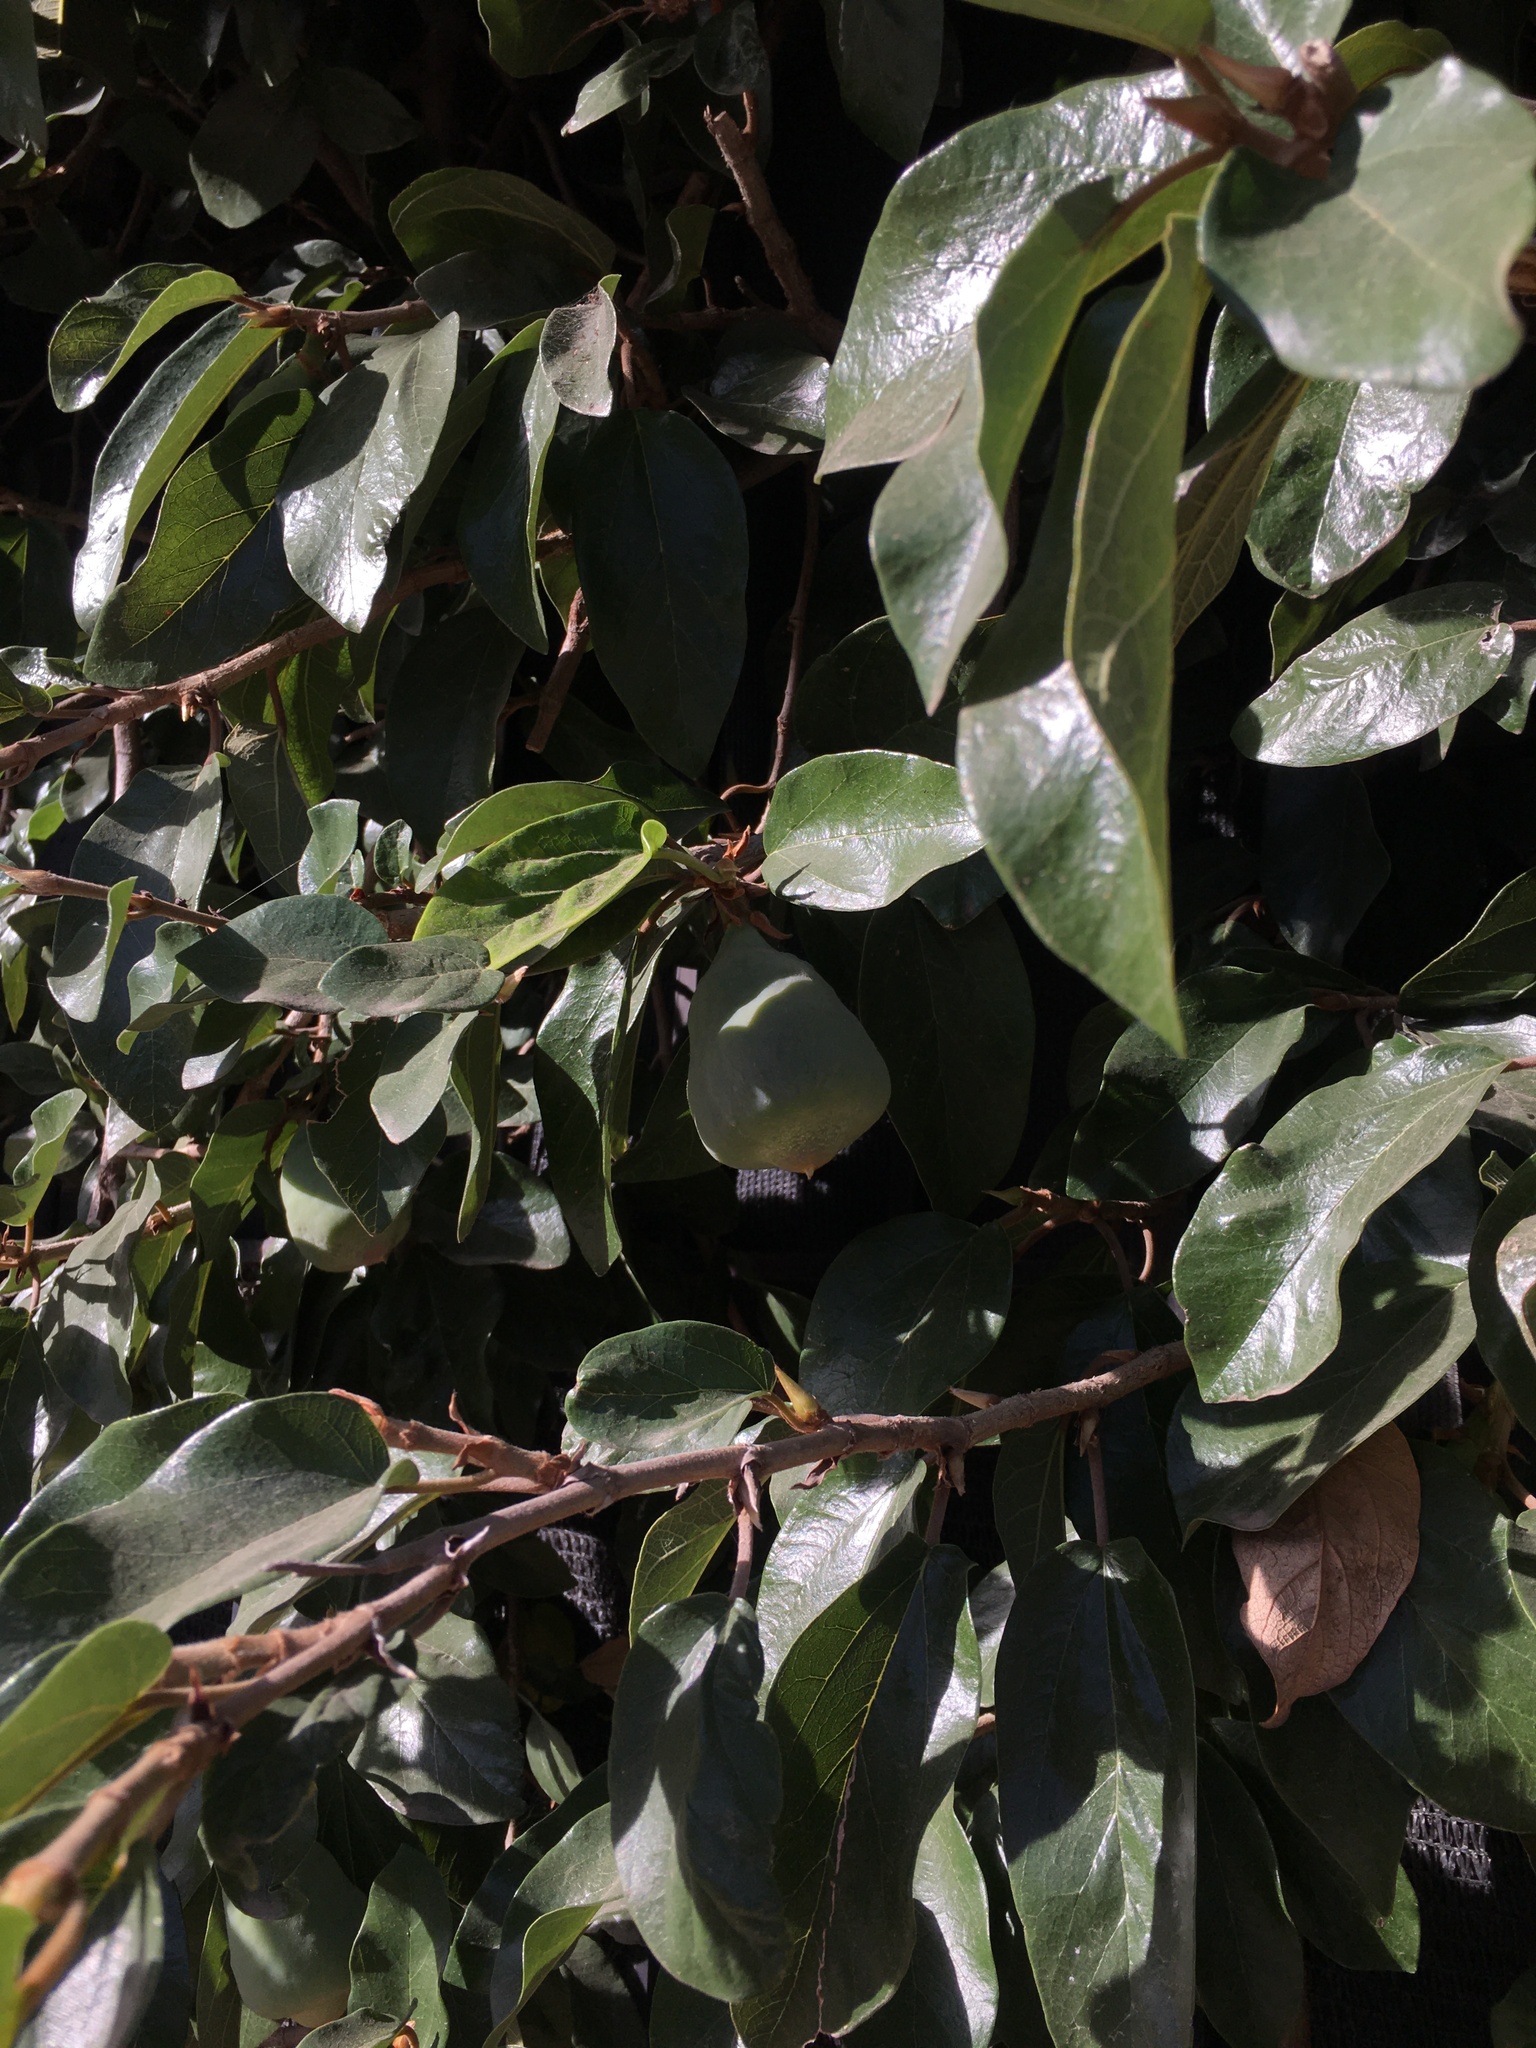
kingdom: Plantae
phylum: Tracheophyta
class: Magnoliopsida
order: Rosales
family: Moraceae
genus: Ficus
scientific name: Ficus pumila
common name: Climbingfig
